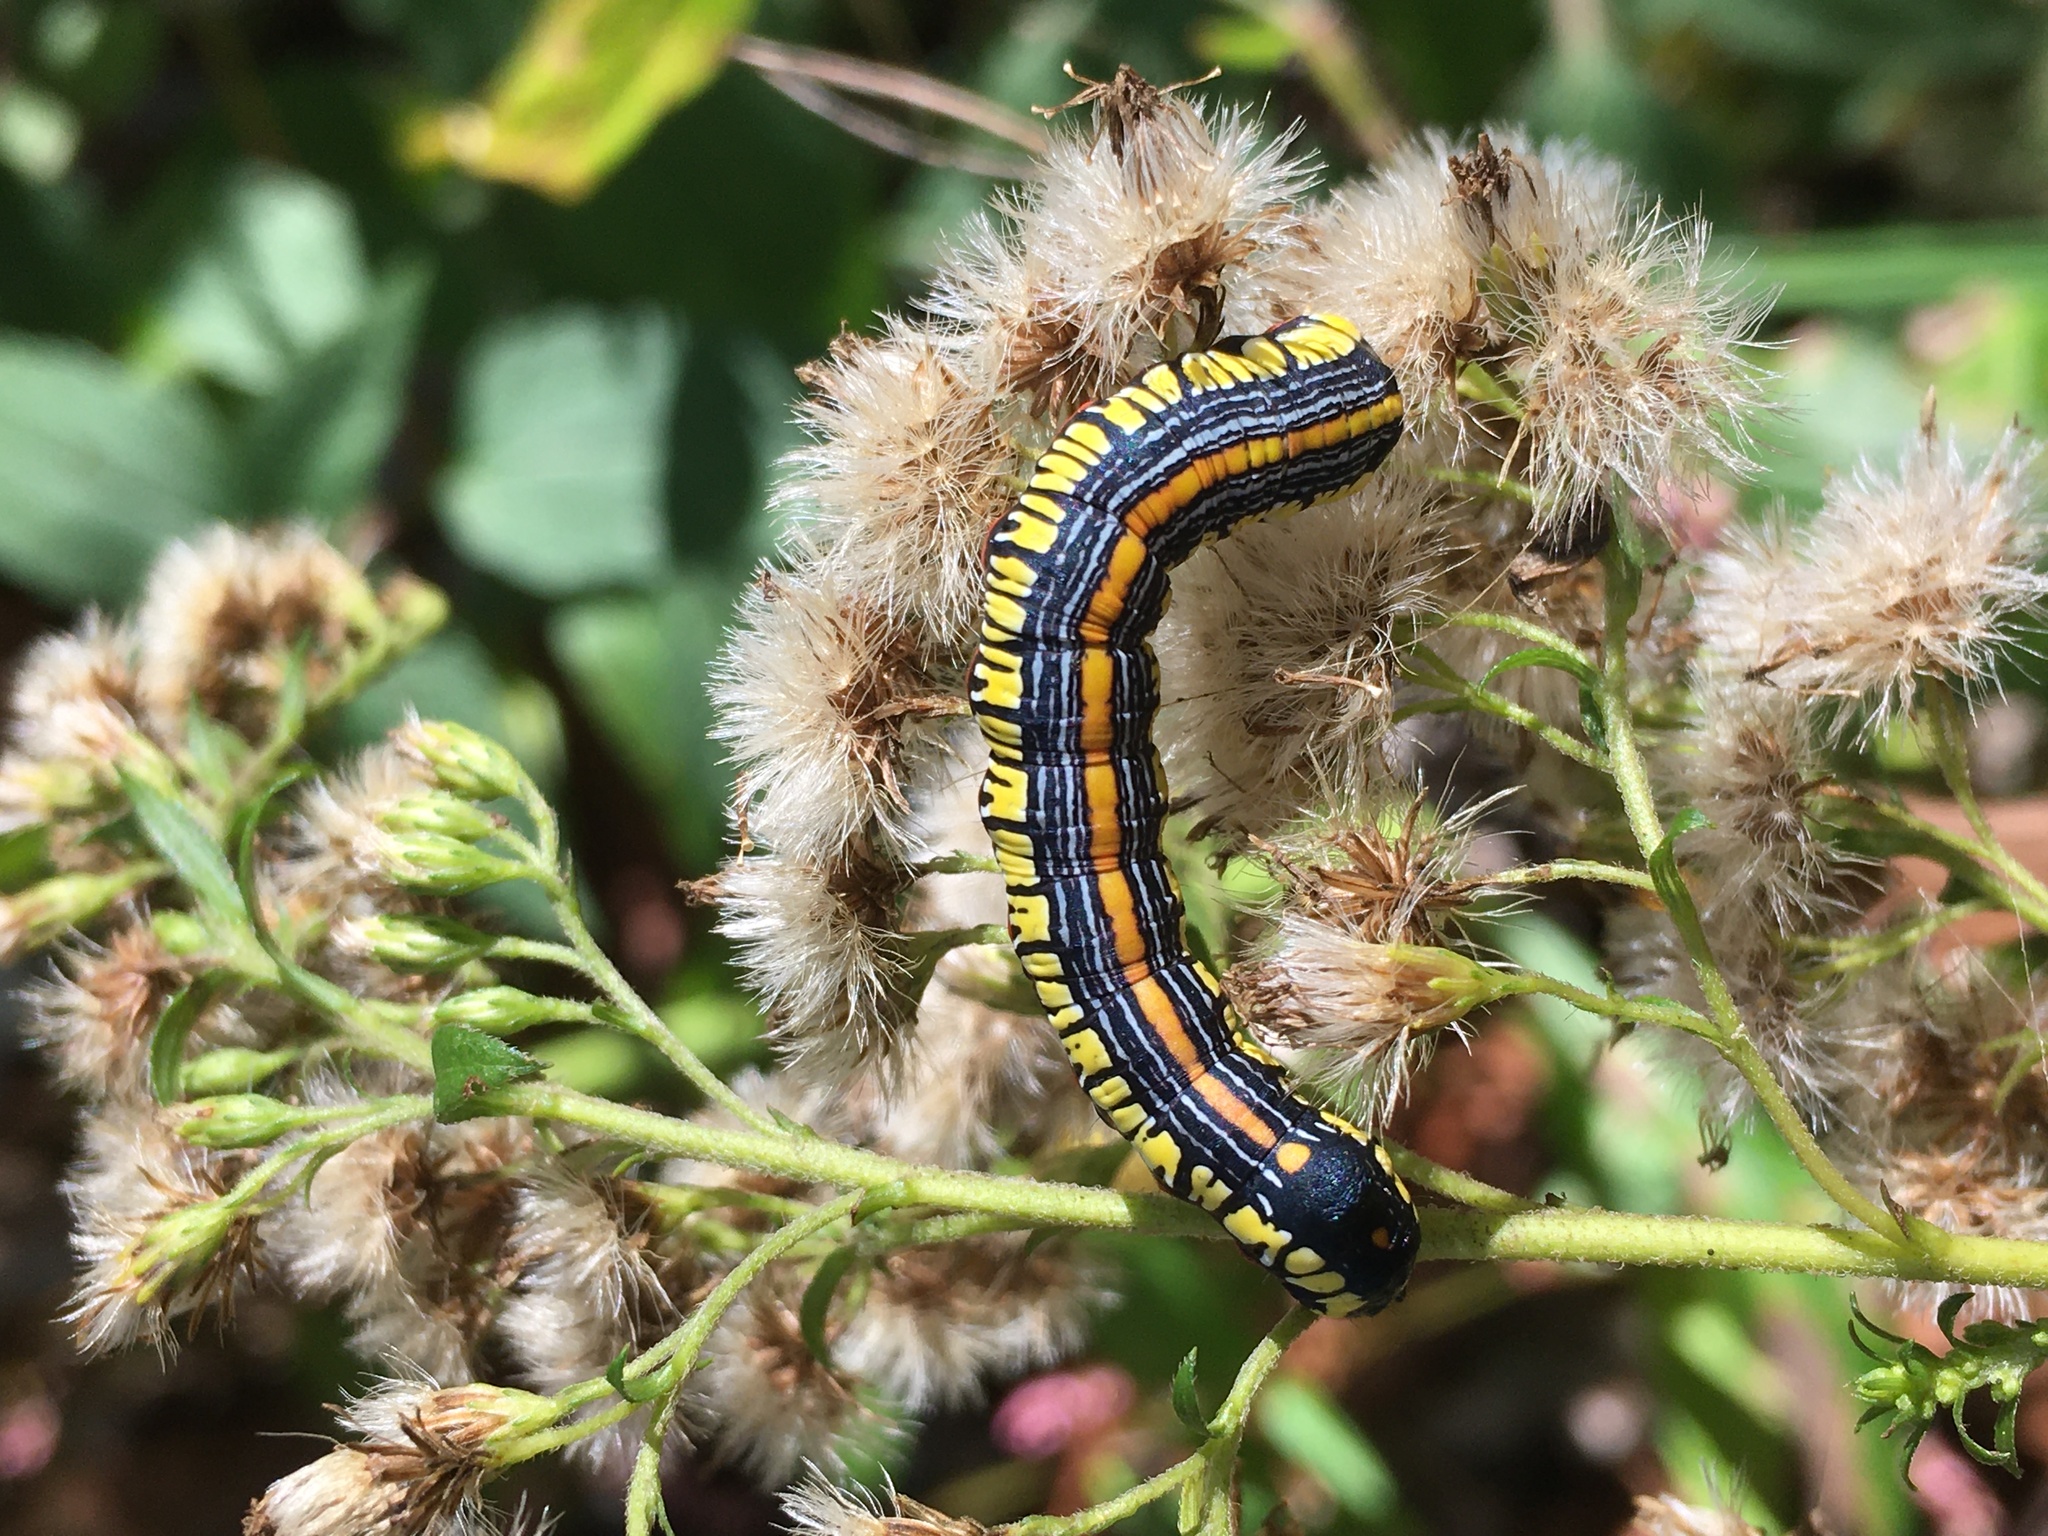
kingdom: Animalia
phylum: Arthropoda
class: Insecta
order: Lepidoptera
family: Noctuidae
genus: Cucullia
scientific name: Cucullia convexipennis
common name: Brown-hooded owlet
